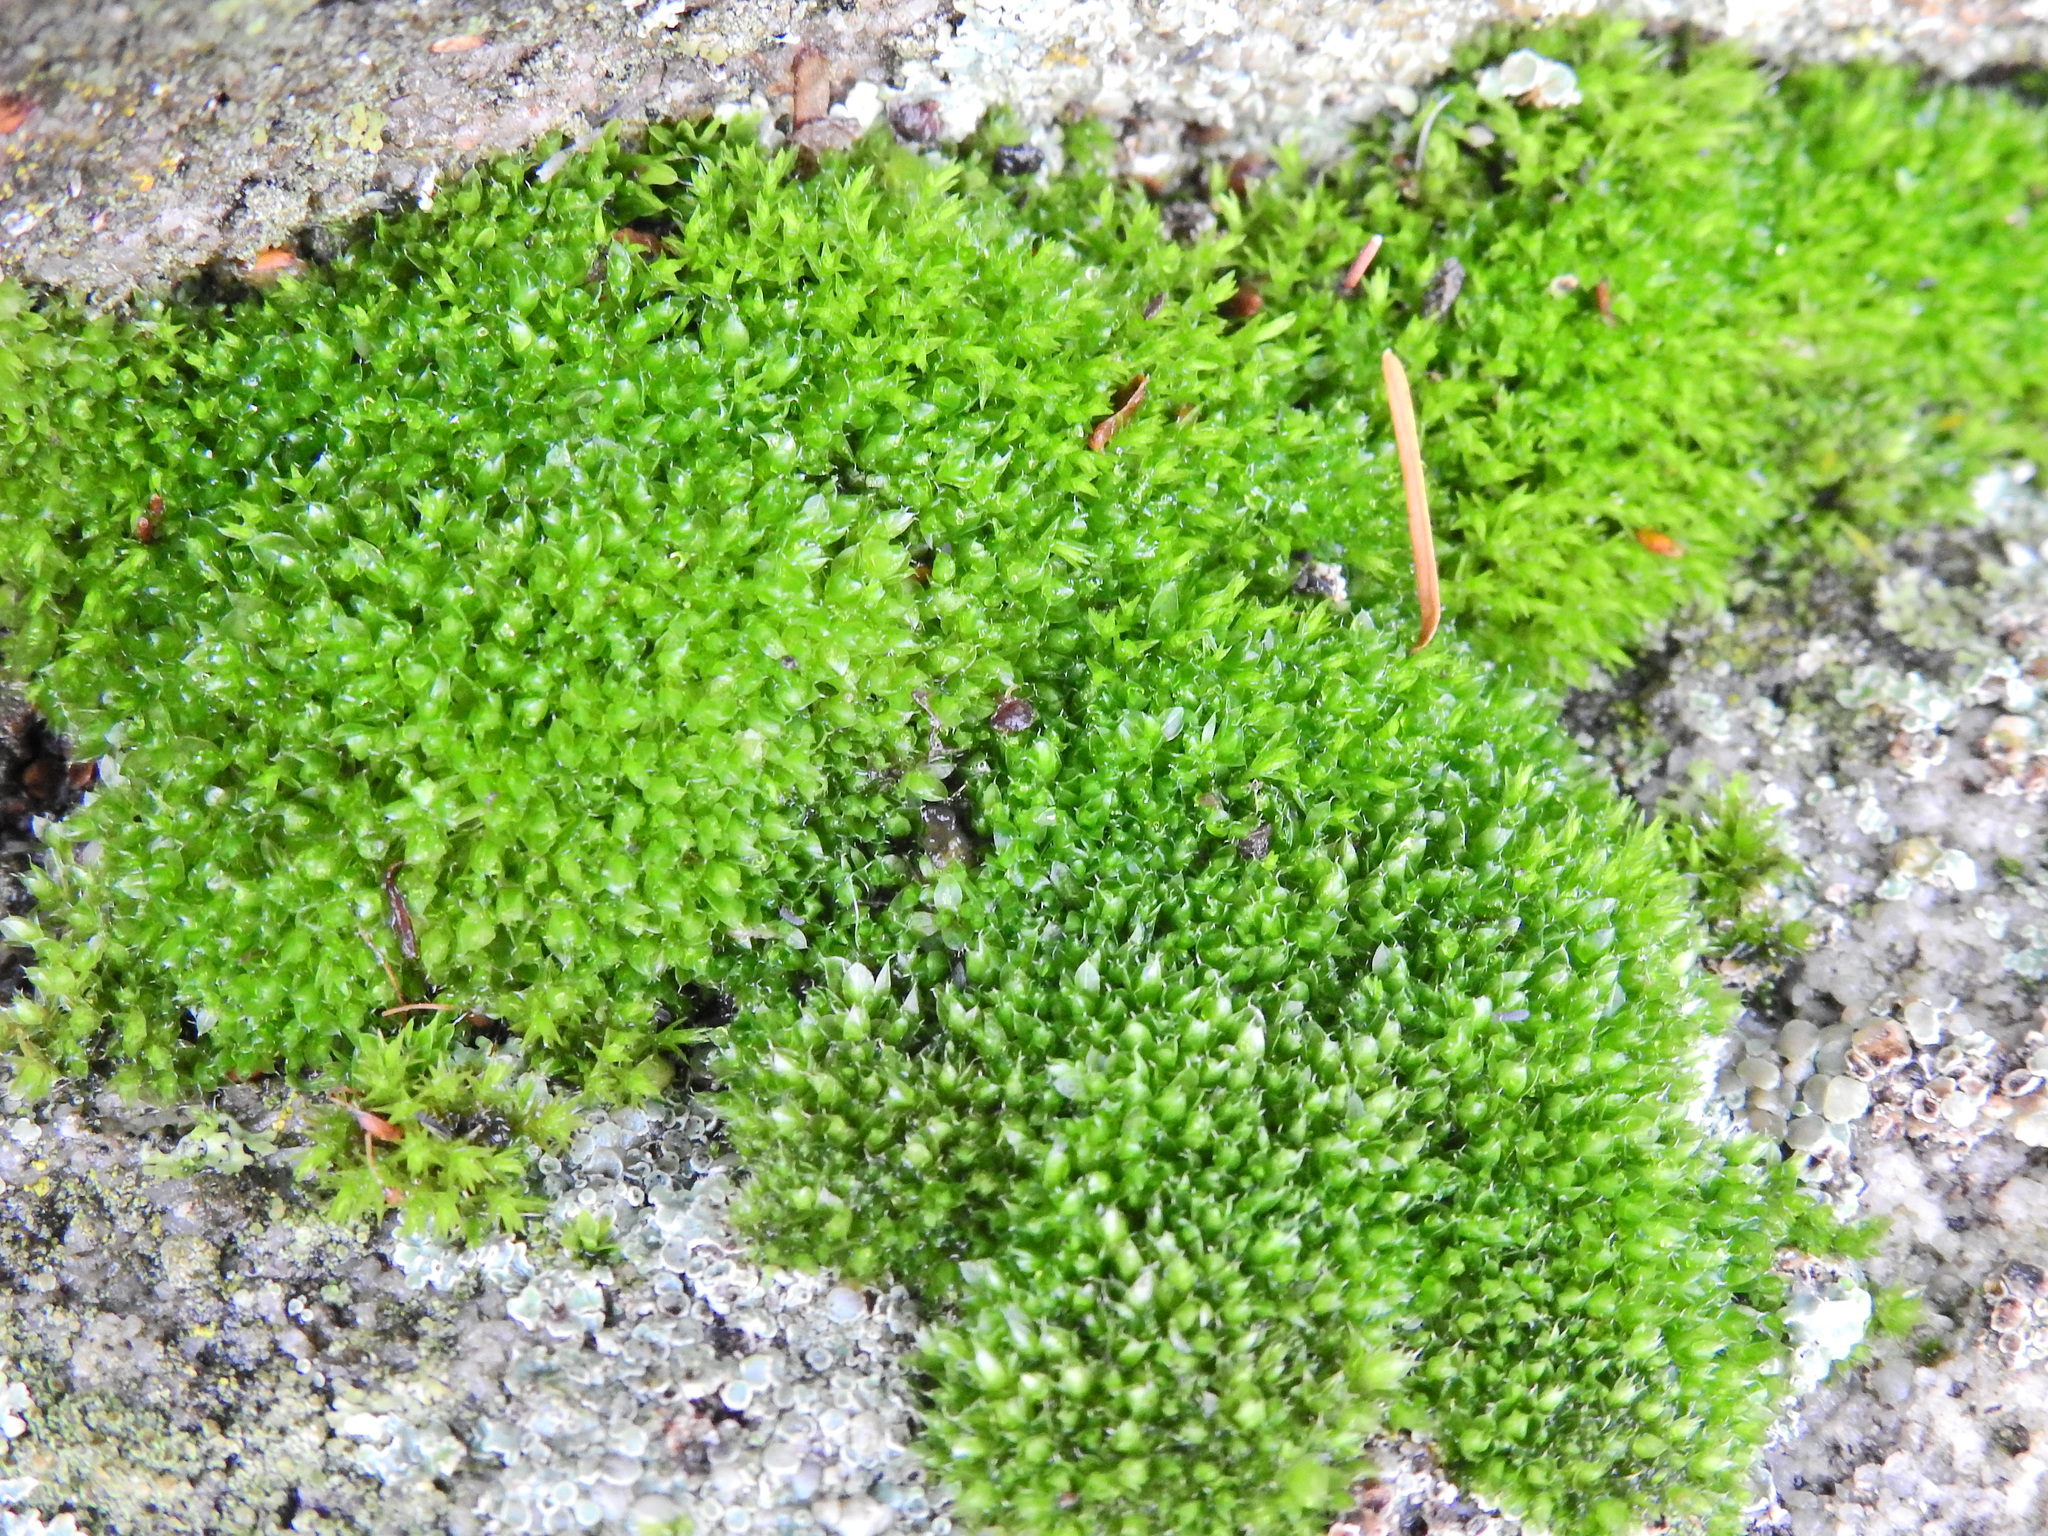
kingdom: Plantae
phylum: Bryophyta
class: Bryopsida
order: Bryales
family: Bryaceae
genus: Rosulabryum
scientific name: Rosulabryum capillare
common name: Capillary thread-moss
